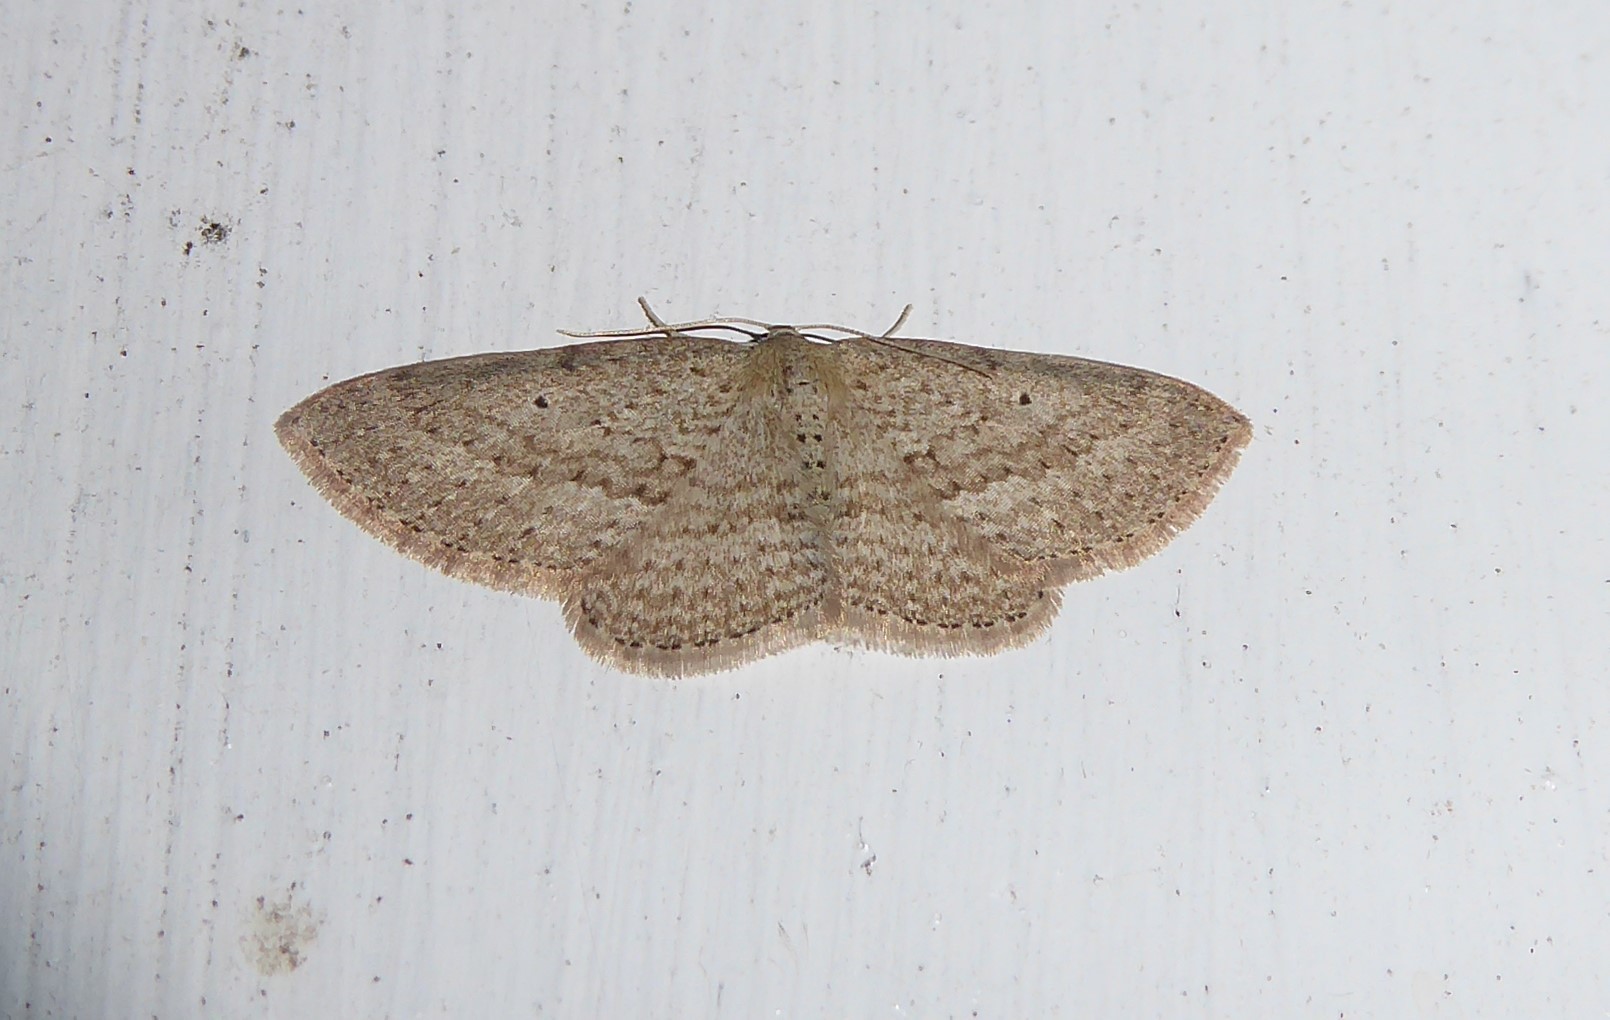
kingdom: Animalia
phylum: Arthropoda
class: Insecta
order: Lepidoptera
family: Geometridae
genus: Poecilasthena
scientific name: Poecilasthena schistaria
